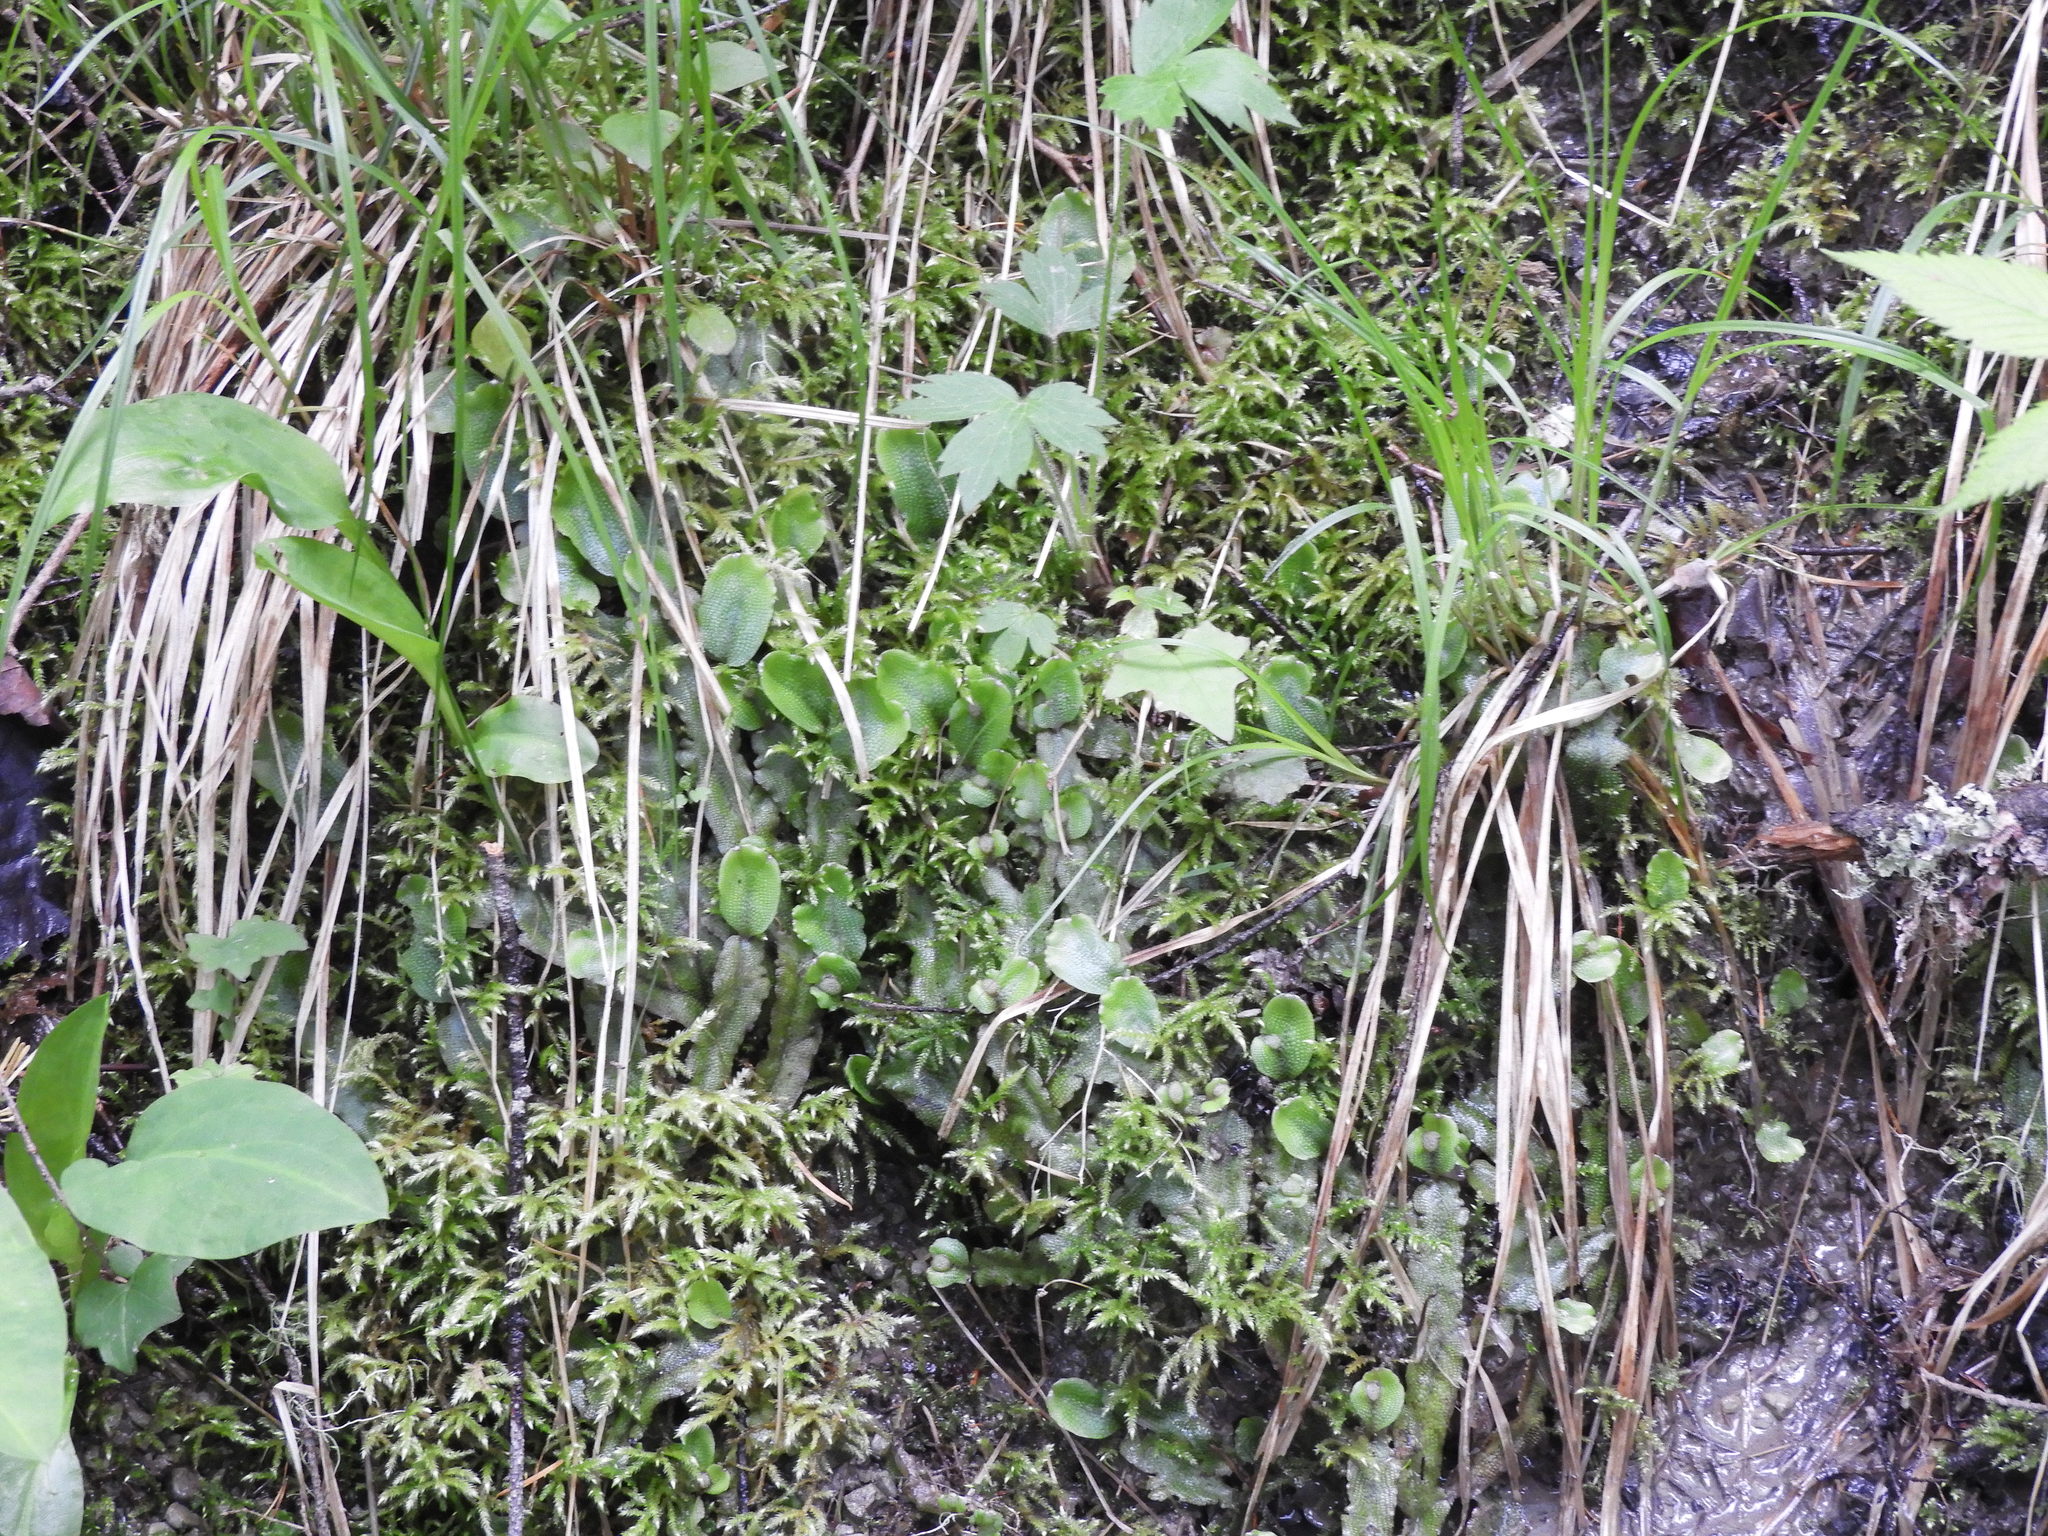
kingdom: Plantae
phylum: Marchantiophyta
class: Marchantiopsida
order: Marchantiales
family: Conocephalaceae
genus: Conocephalum
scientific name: Conocephalum salebrosum
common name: Cat-tongue liverwort
